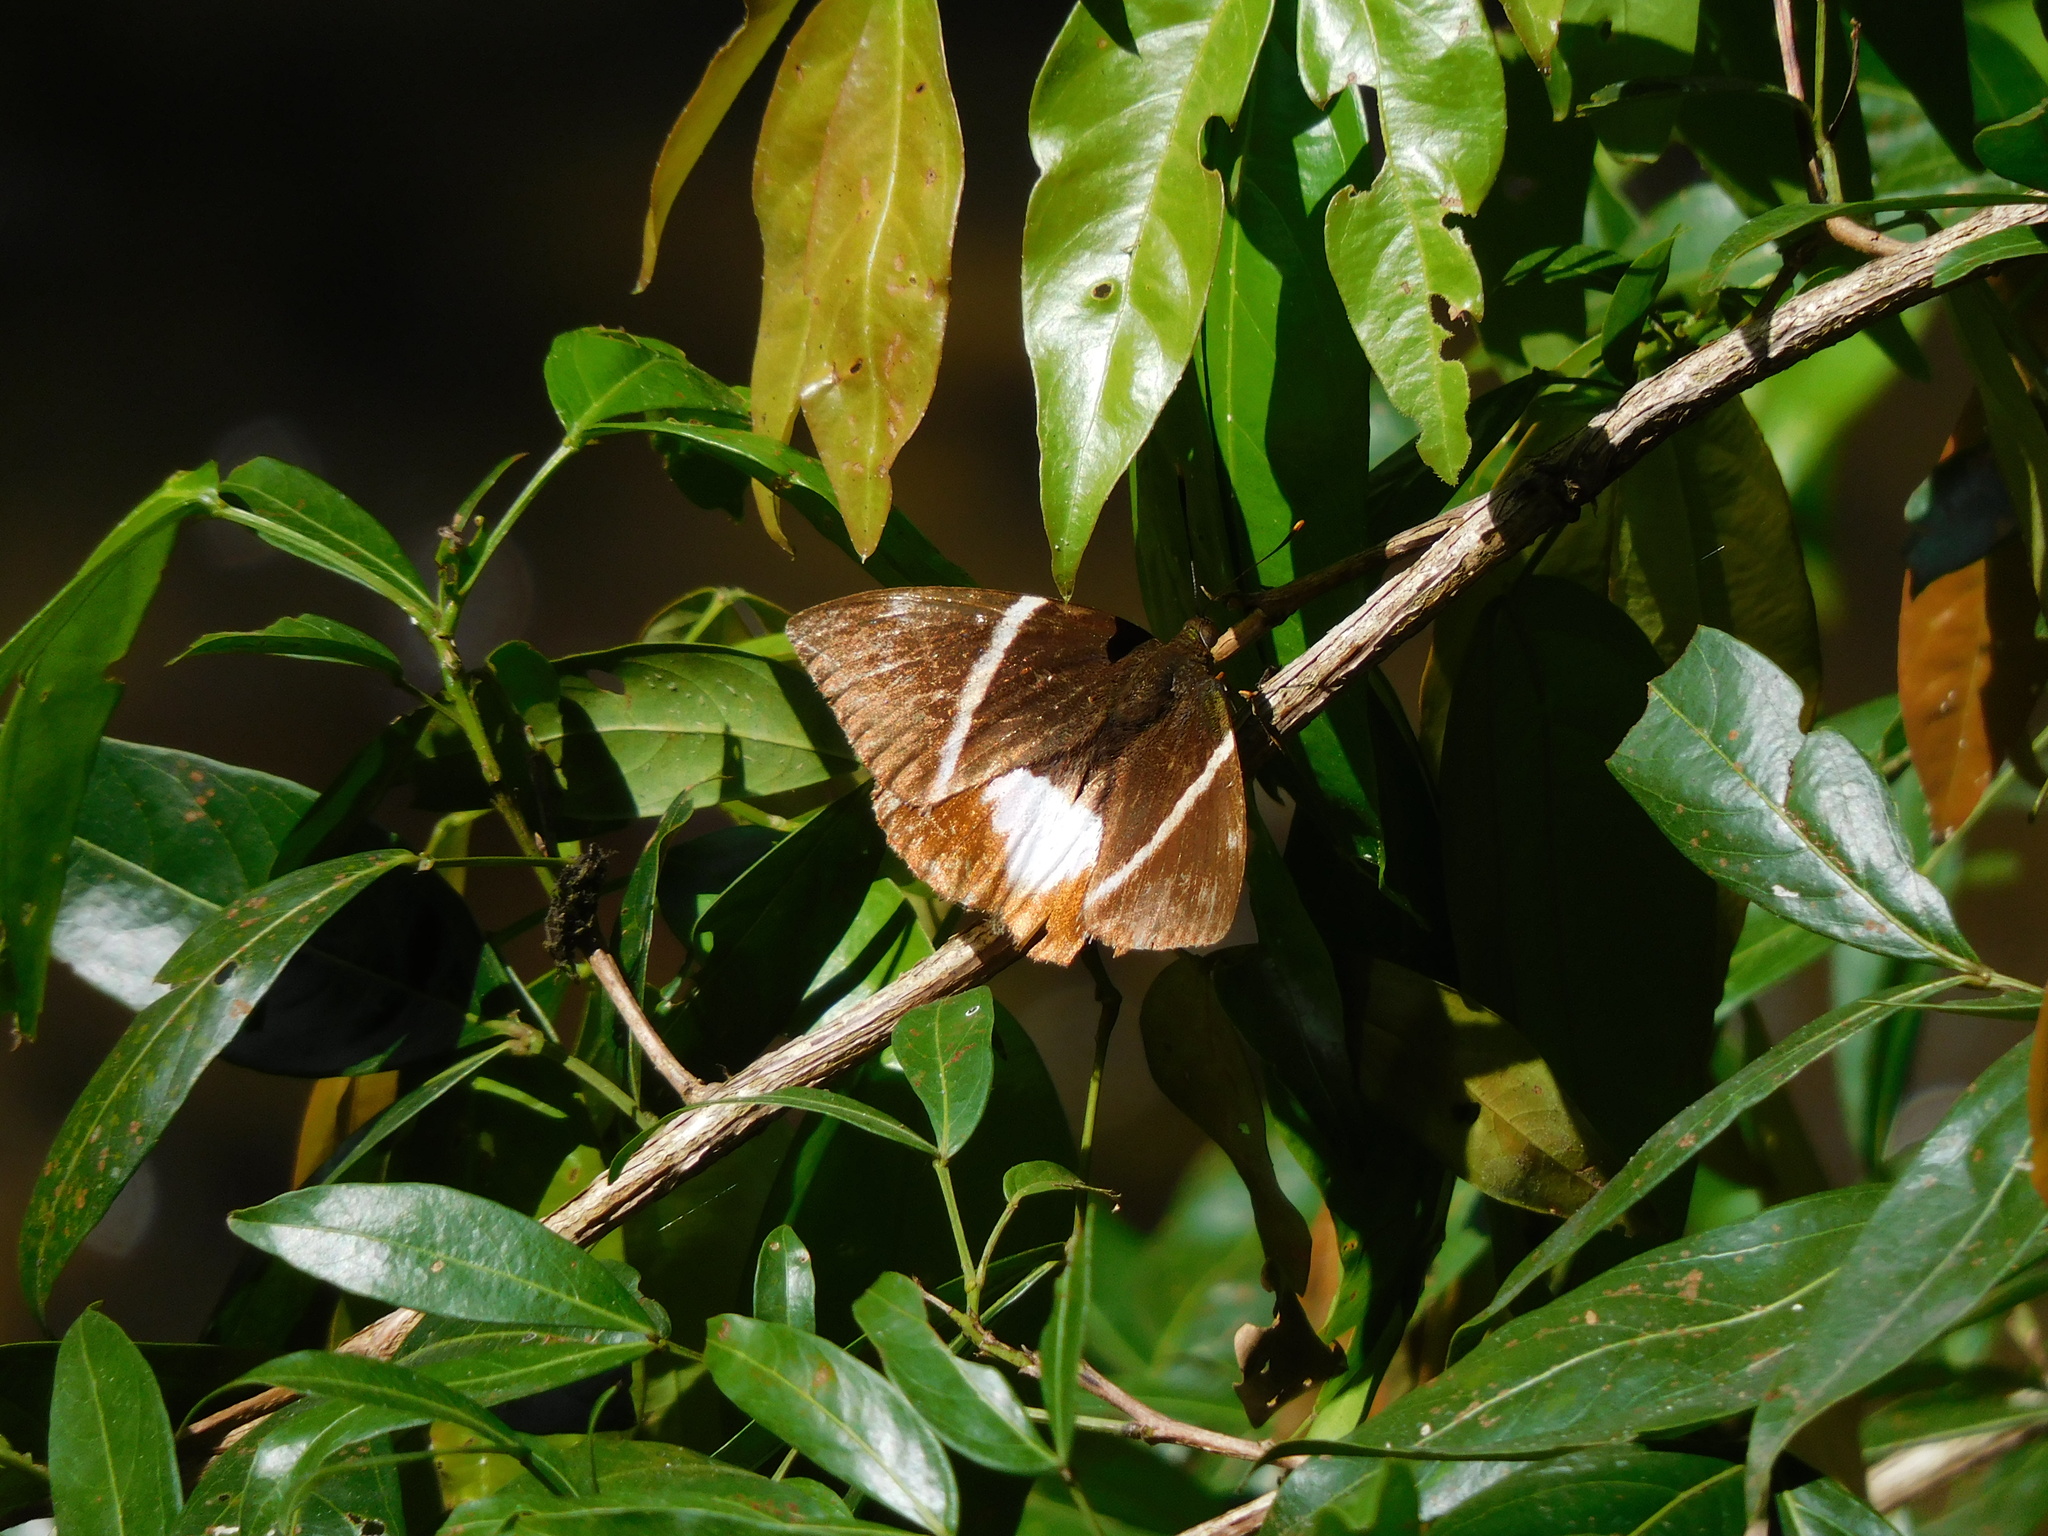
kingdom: Animalia
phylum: Arthropoda
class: Insecta
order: Lepidoptera
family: Castniidae
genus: Castniomera
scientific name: Castniomera atymnius
